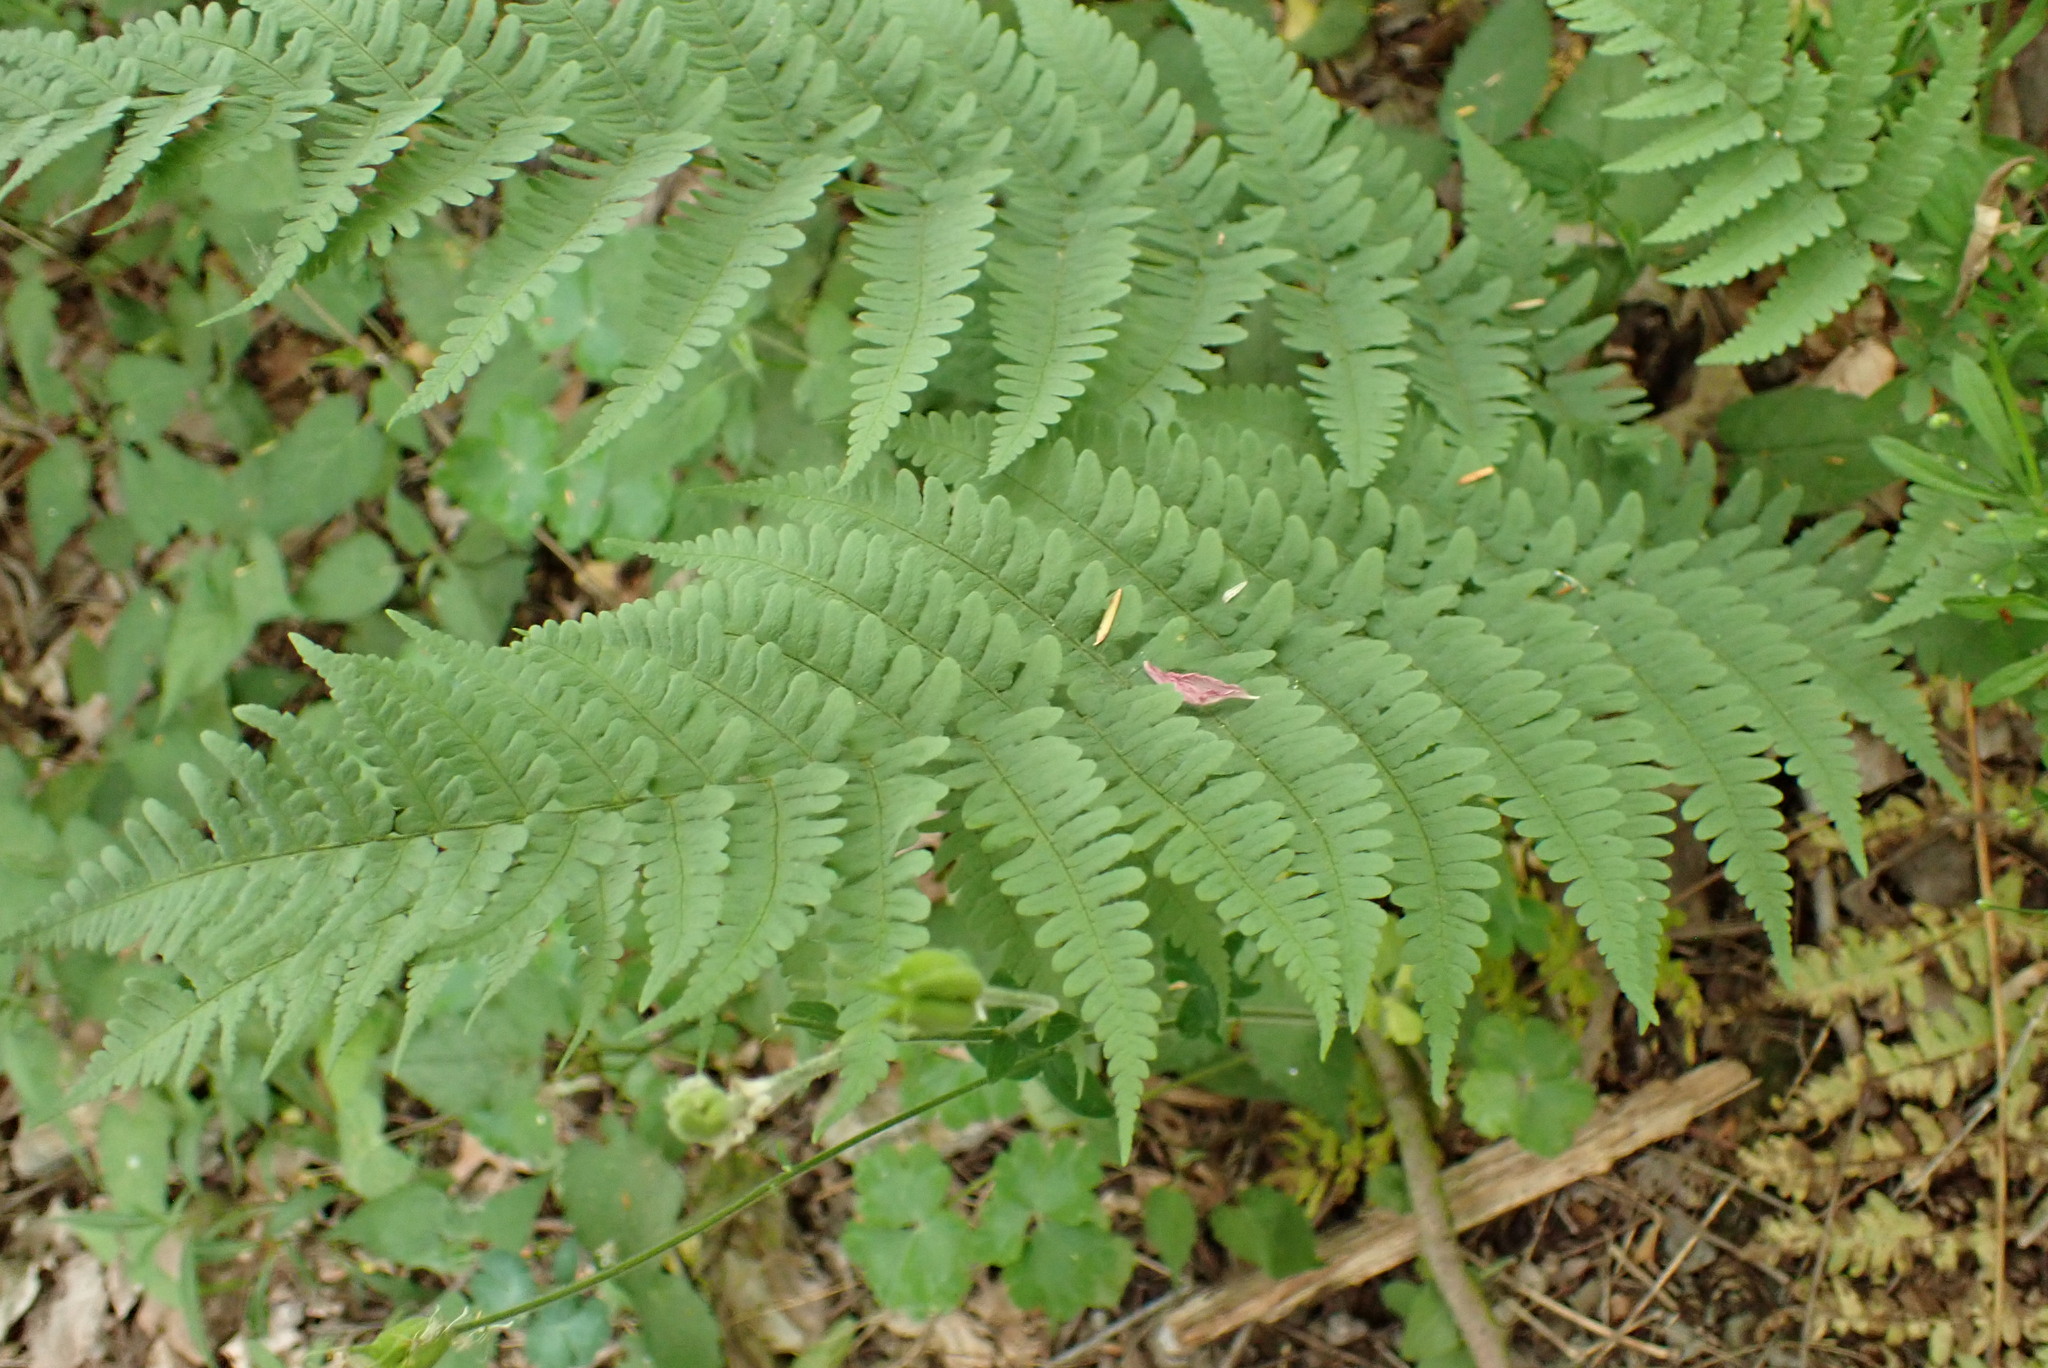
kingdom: Plantae
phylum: Tracheophyta
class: Polypodiopsida
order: Polypodiales
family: Dryopteridaceae
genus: Dryopteris
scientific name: Dryopteris marginalis
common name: Marginal wood fern
